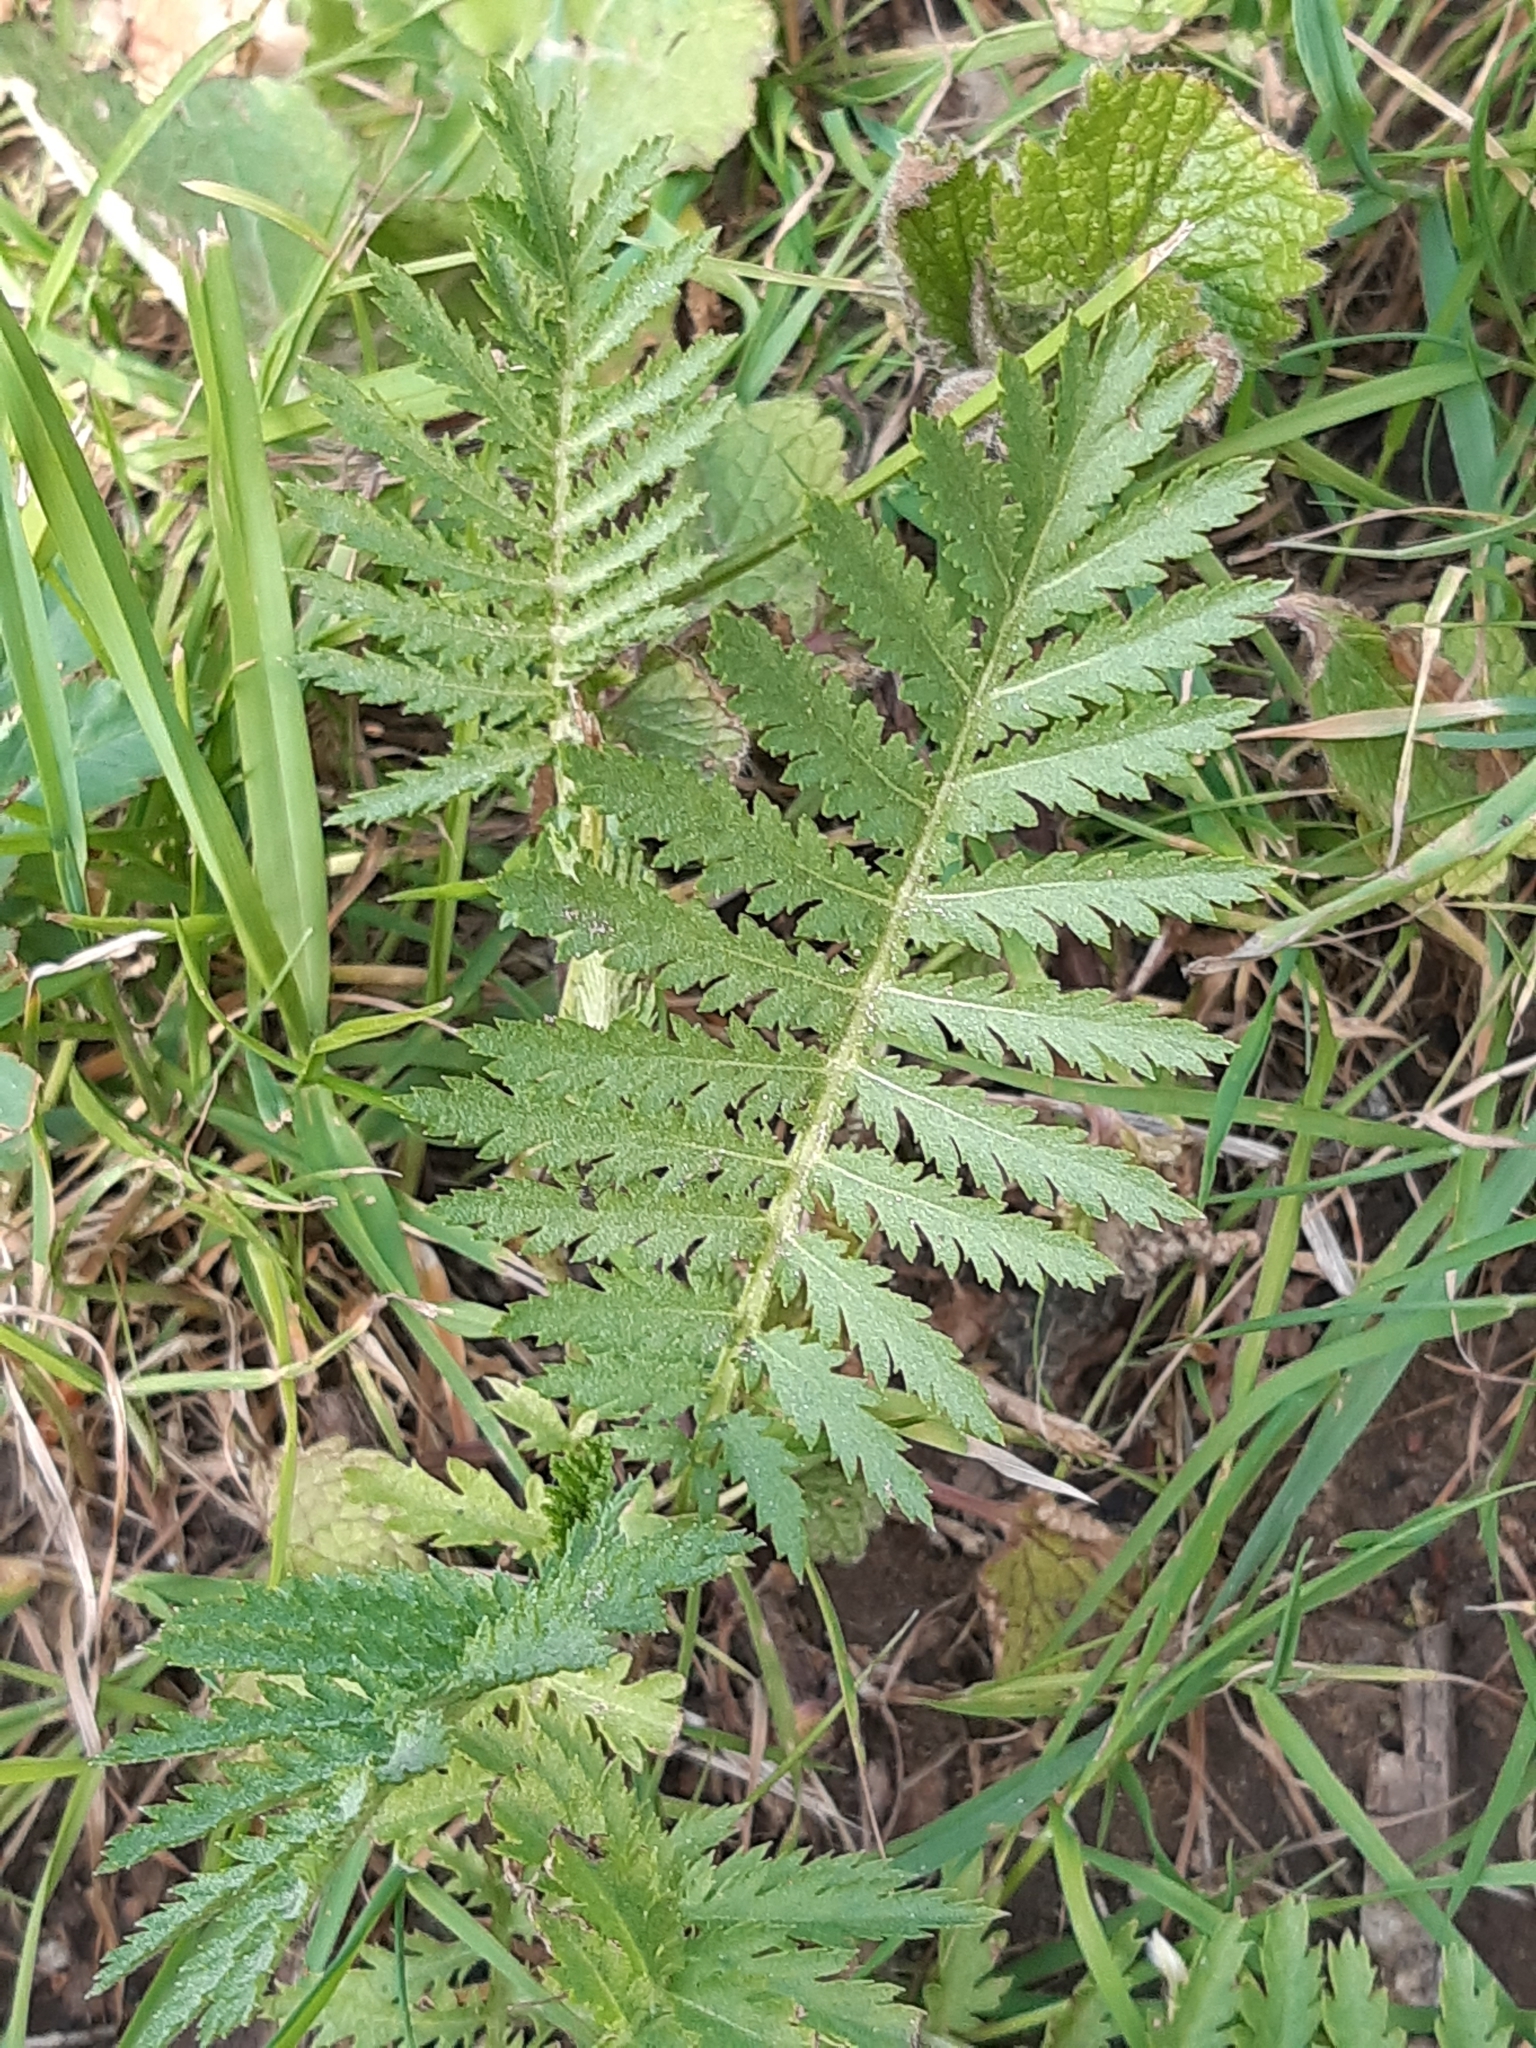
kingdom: Plantae
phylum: Tracheophyta
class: Magnoliopsida
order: Asterales
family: Asteraceae
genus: Tanacetum
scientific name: Tanacetum vulgare
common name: Common tansy
